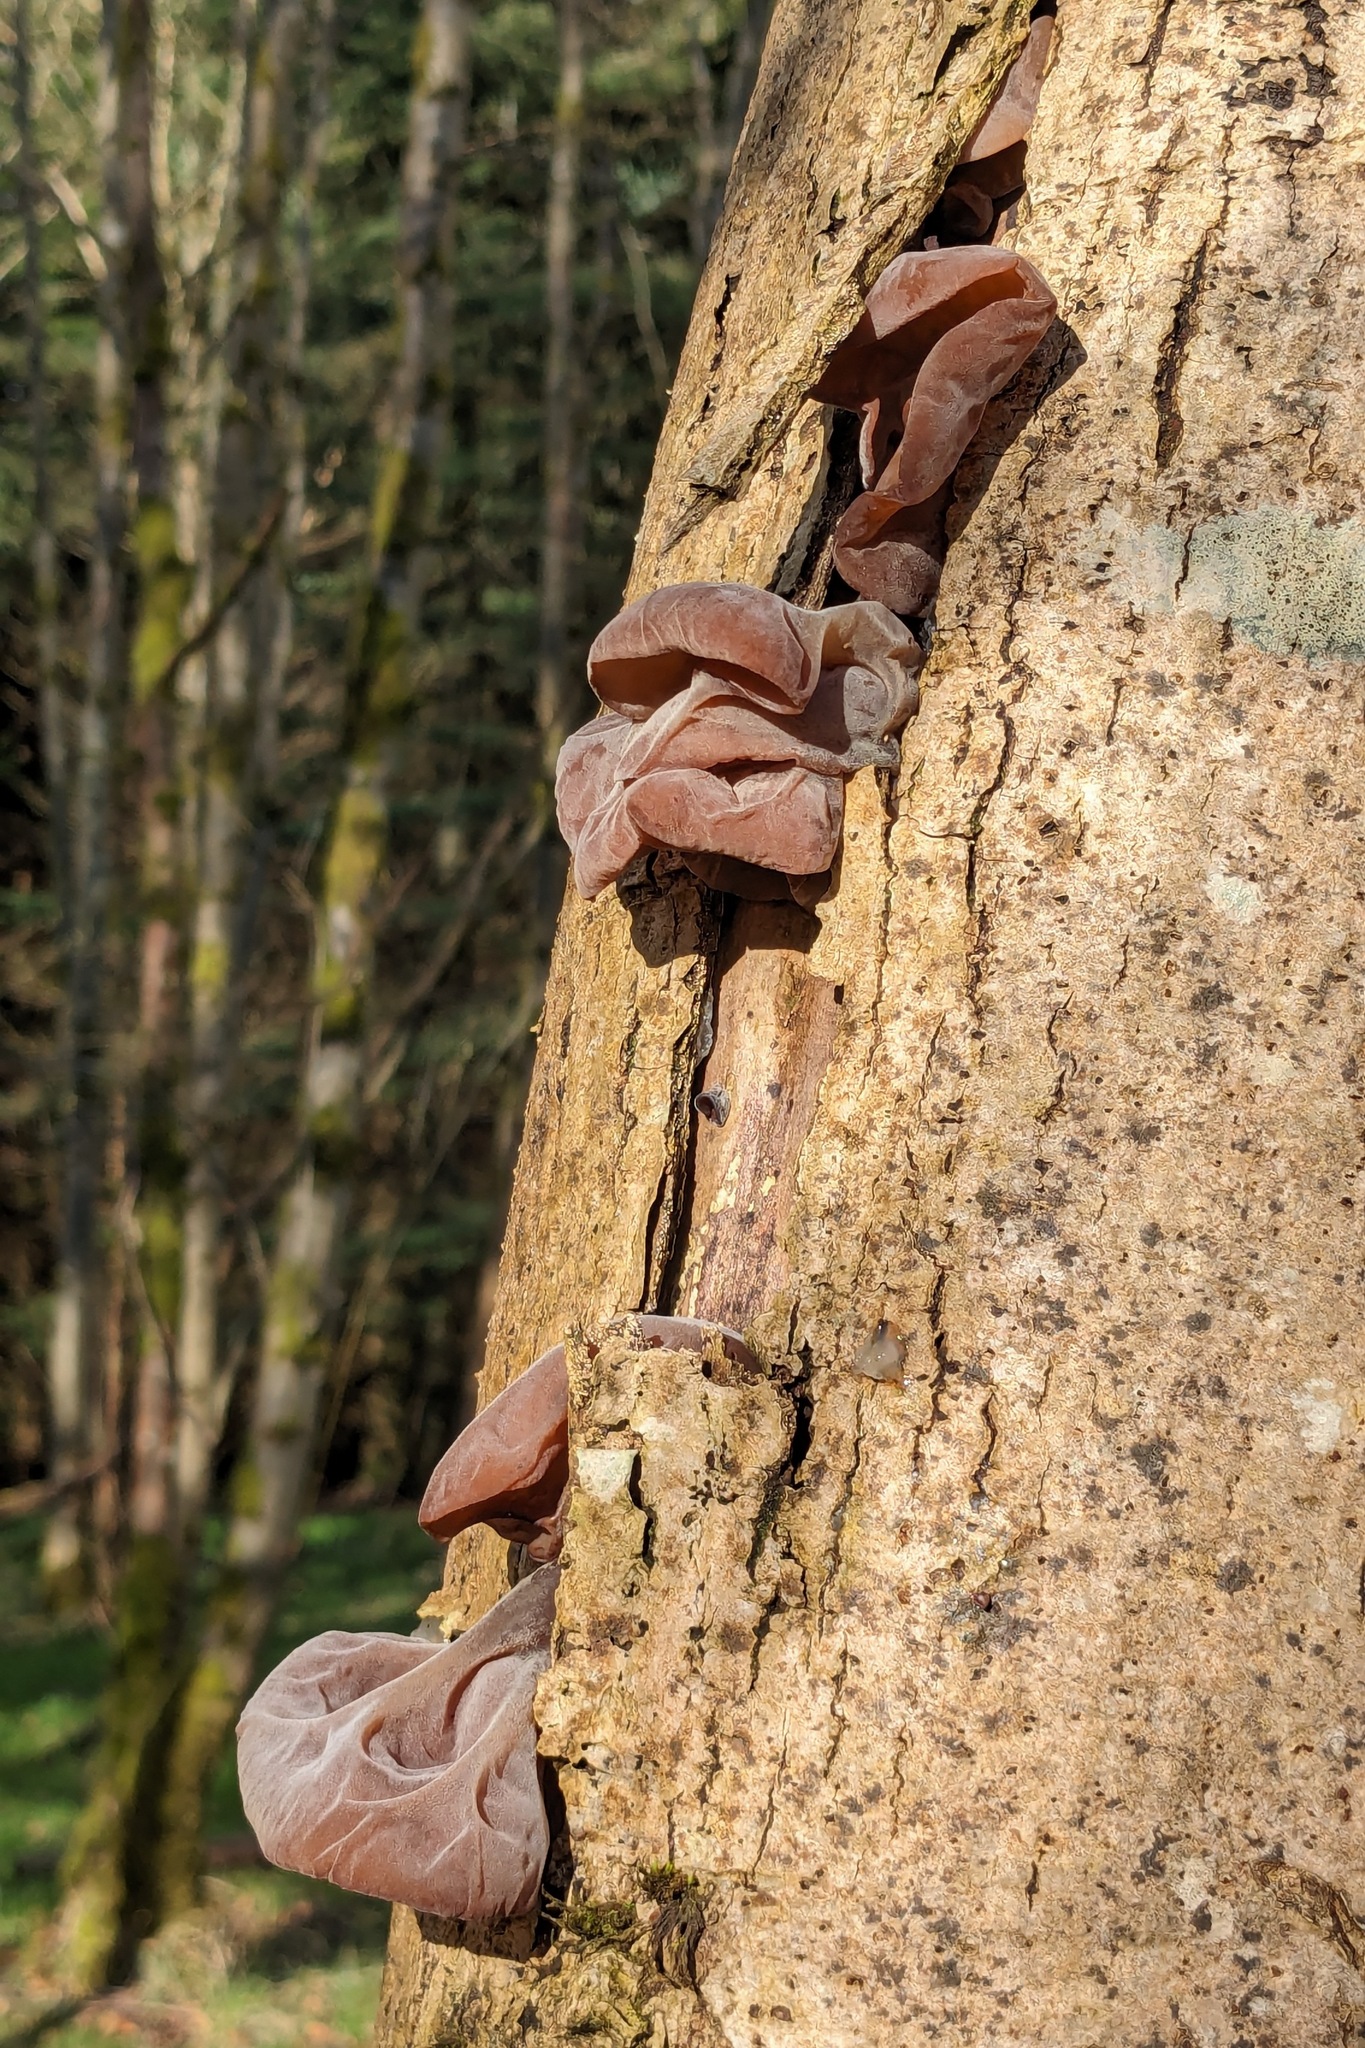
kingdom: Fungi
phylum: Basidiomycota
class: Agaricomycetes
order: Auriculariales
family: Auriculariaceae
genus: Auricularia
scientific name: Auricularia auricula-judae
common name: Jelly ear
